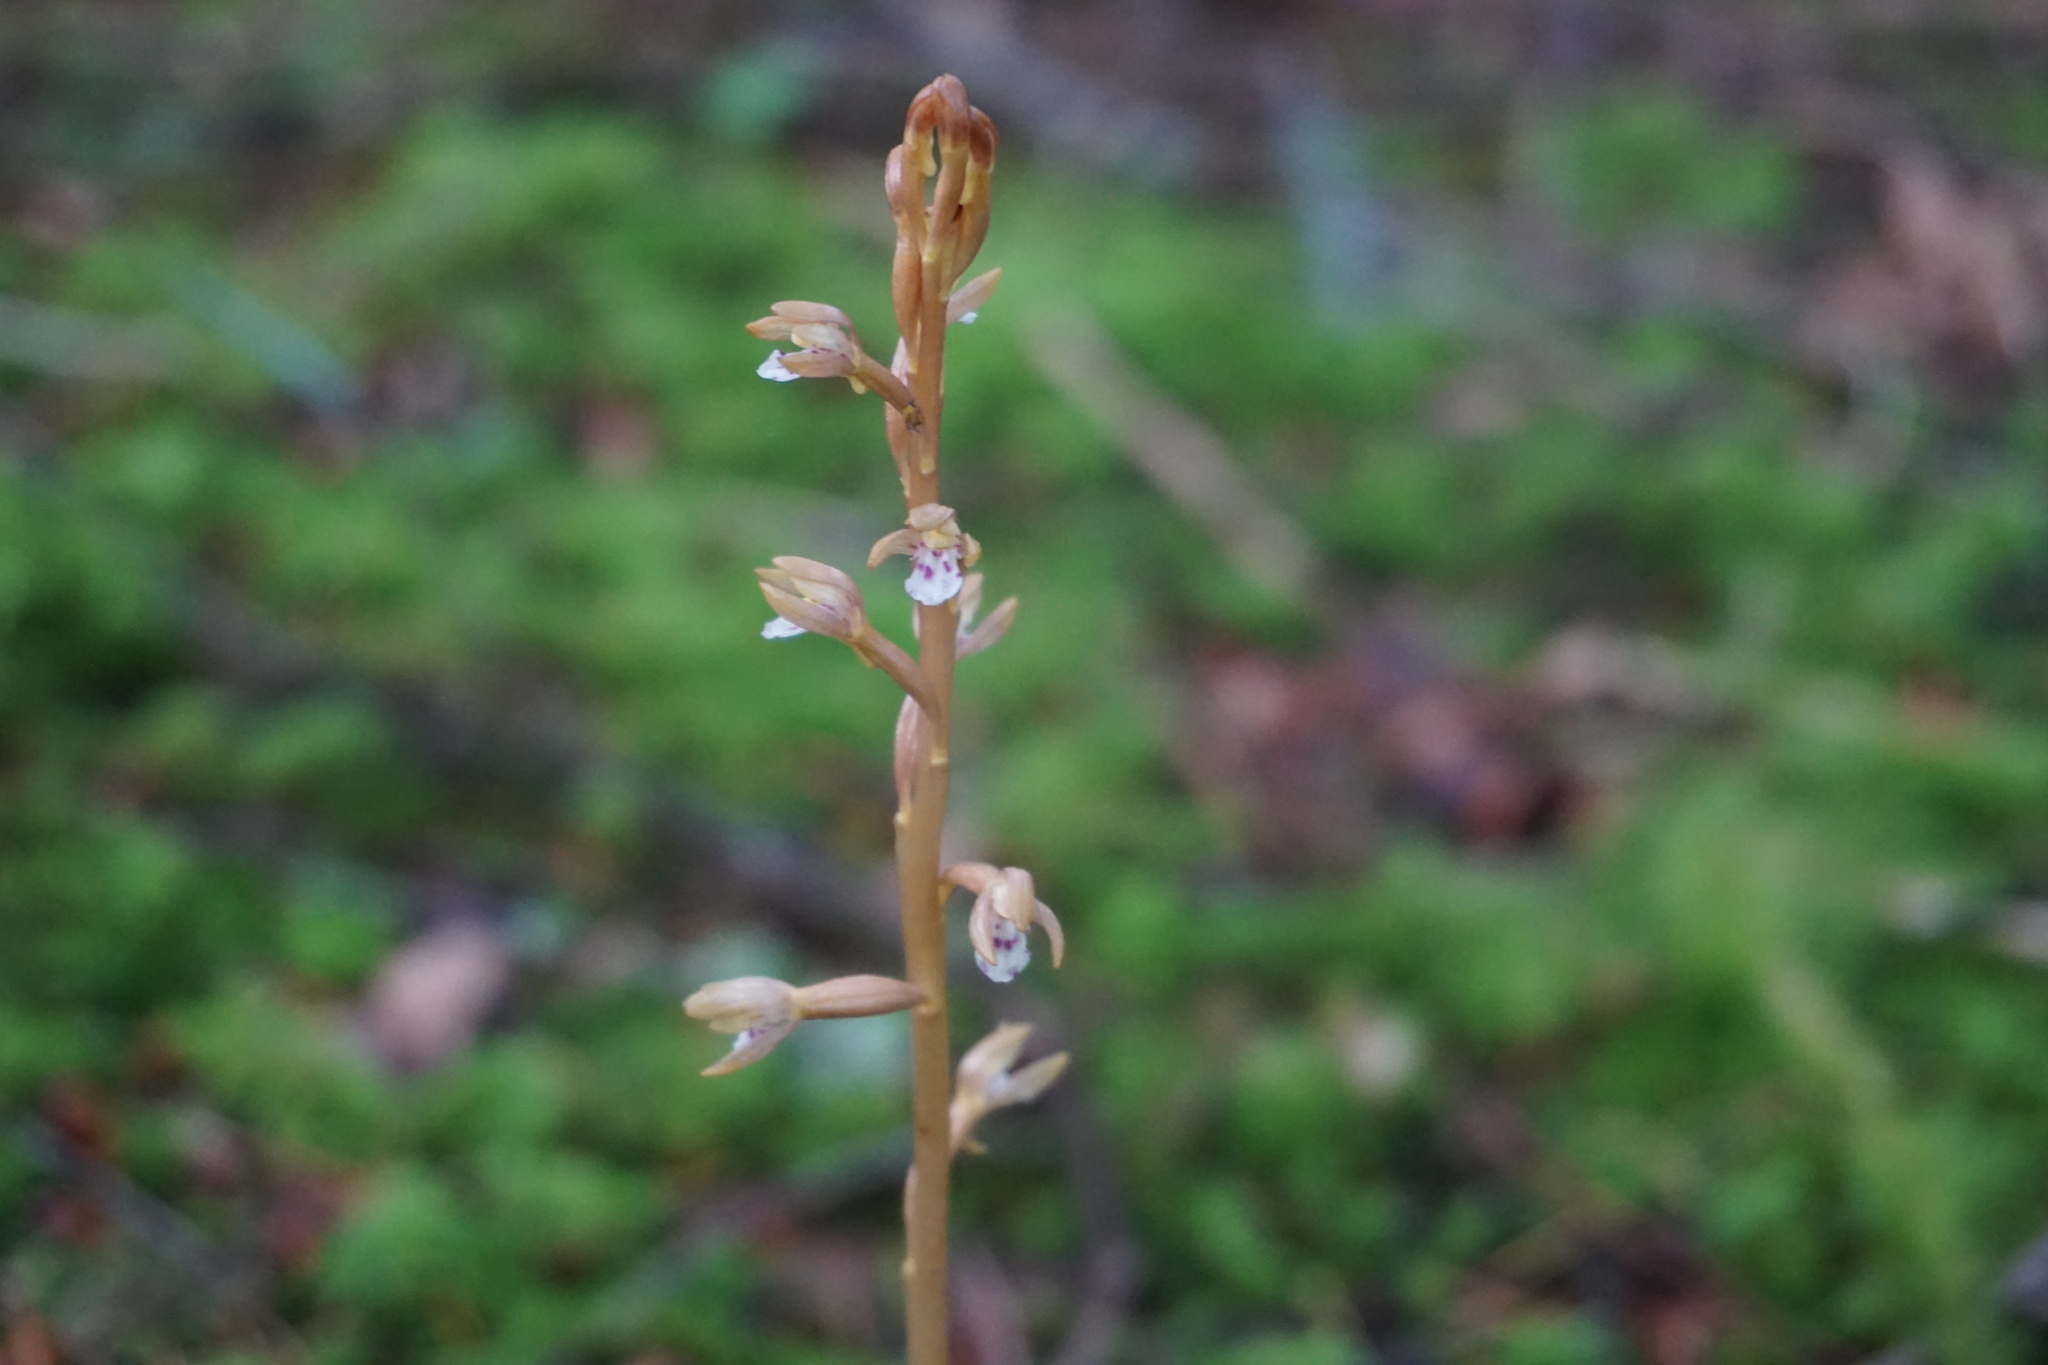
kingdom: Plantae
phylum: Tracheophyta
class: Liliopsida
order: Asparagales
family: Orchidaceae
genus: Corallorhiza
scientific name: Corallorhiza maculata
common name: Spotted coralroot
